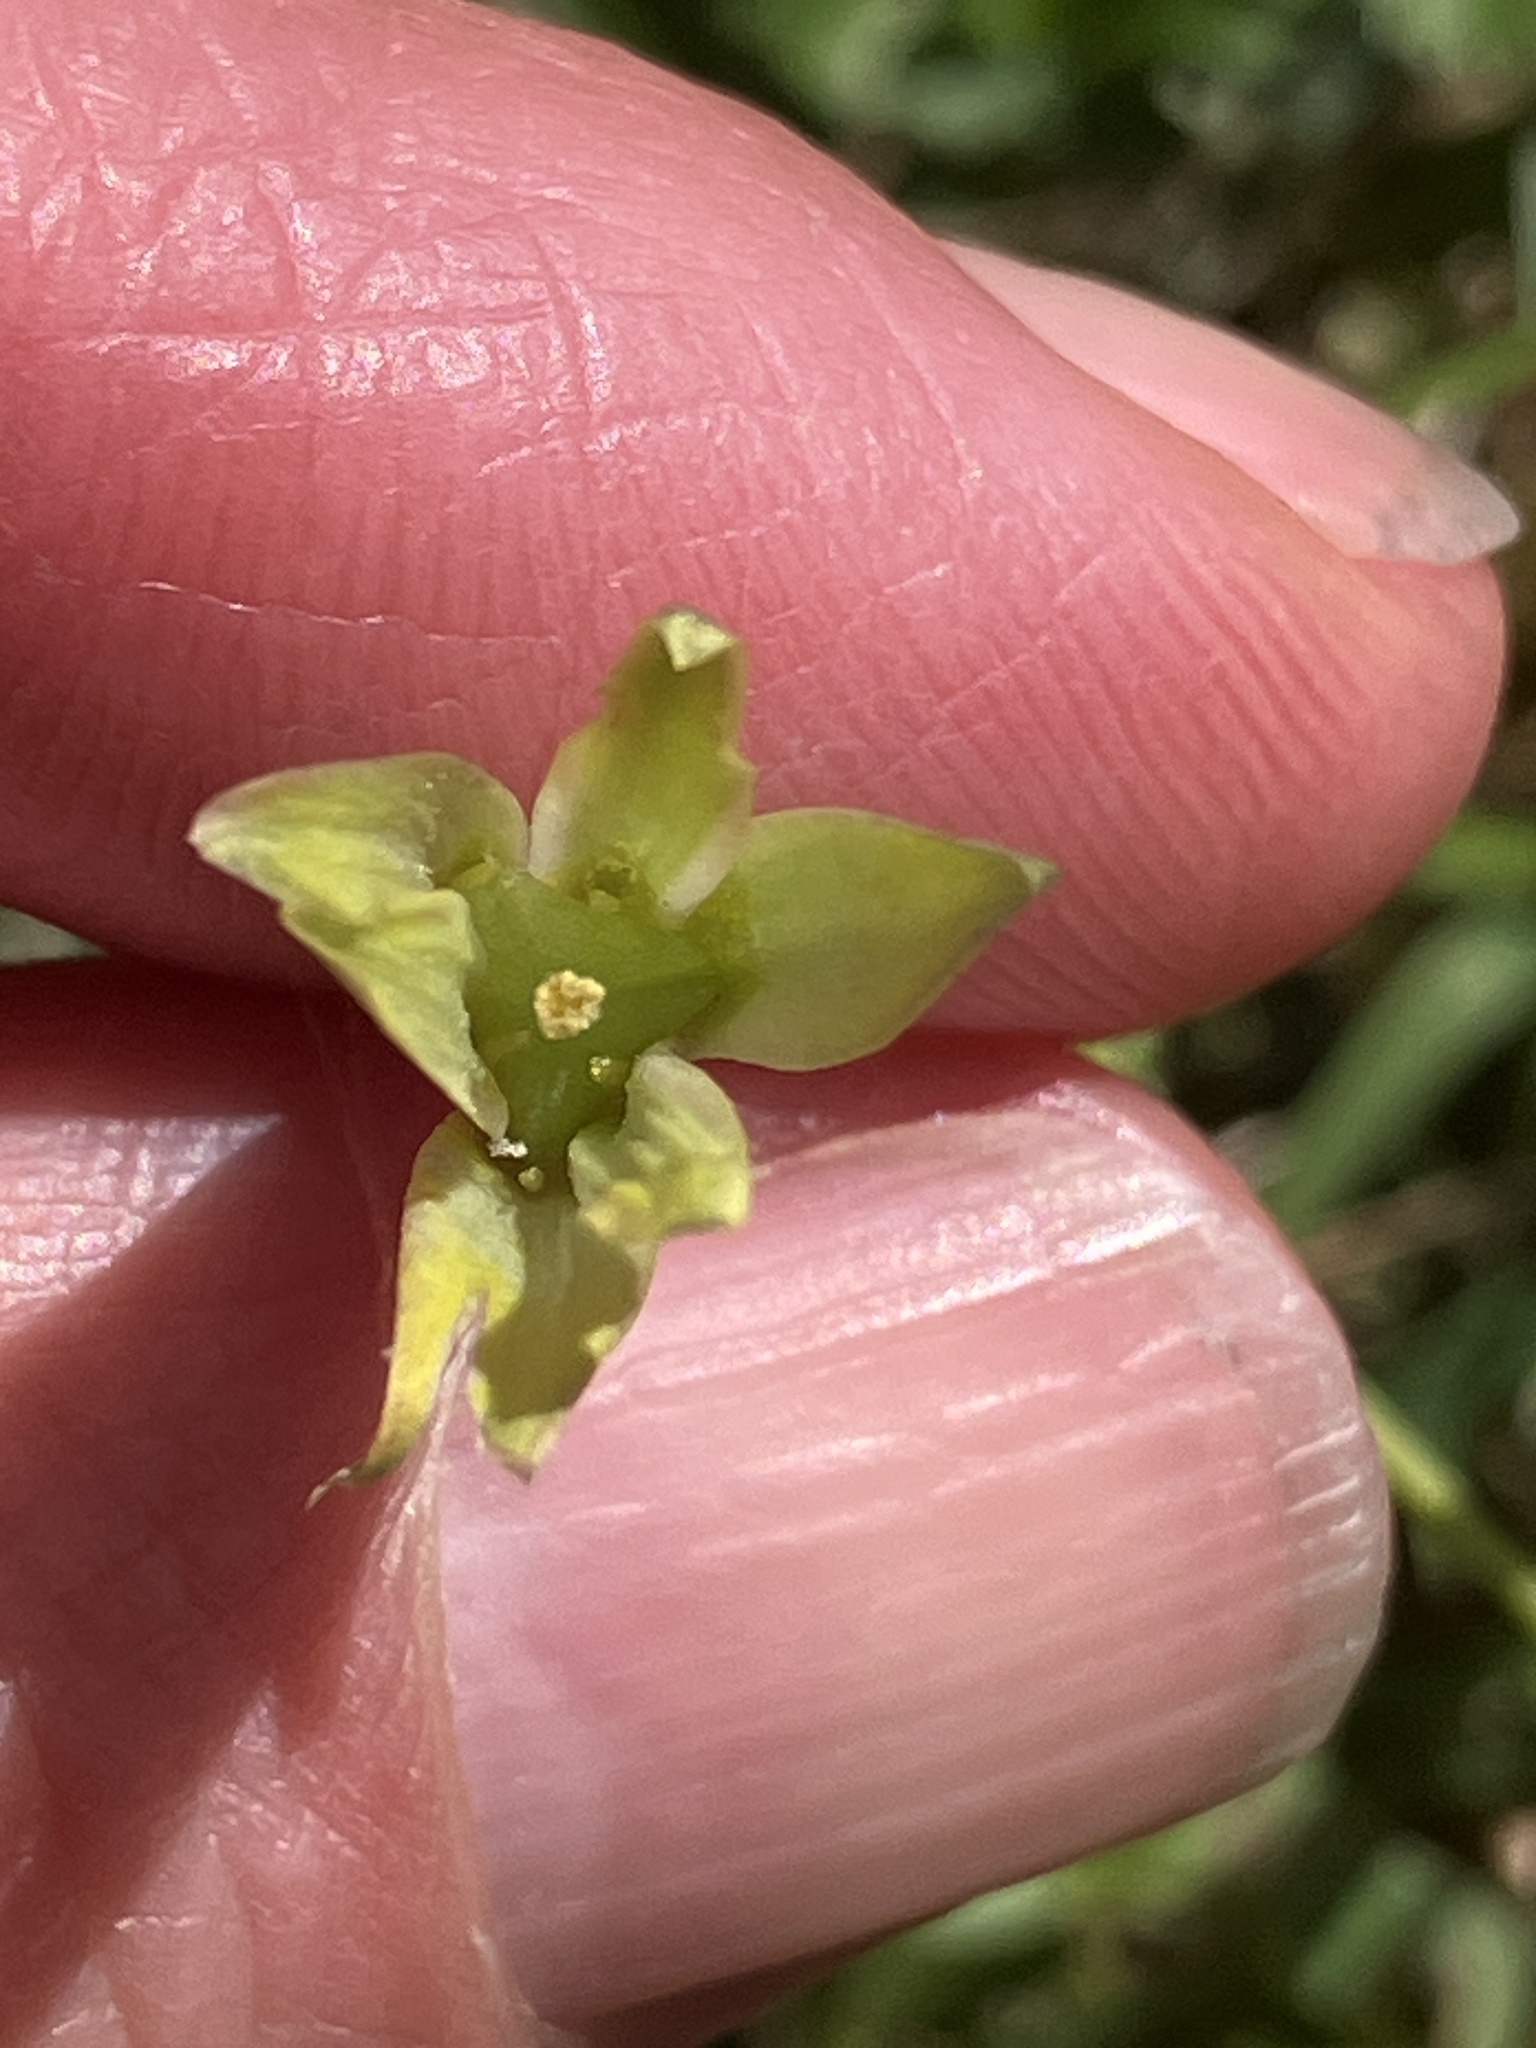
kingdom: Plantae
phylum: Tracheophyta
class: Liliopsida
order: Liliales
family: Liliaceae
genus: Gagea
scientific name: Gagea lutea
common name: Yellow star-of-bethlehem
